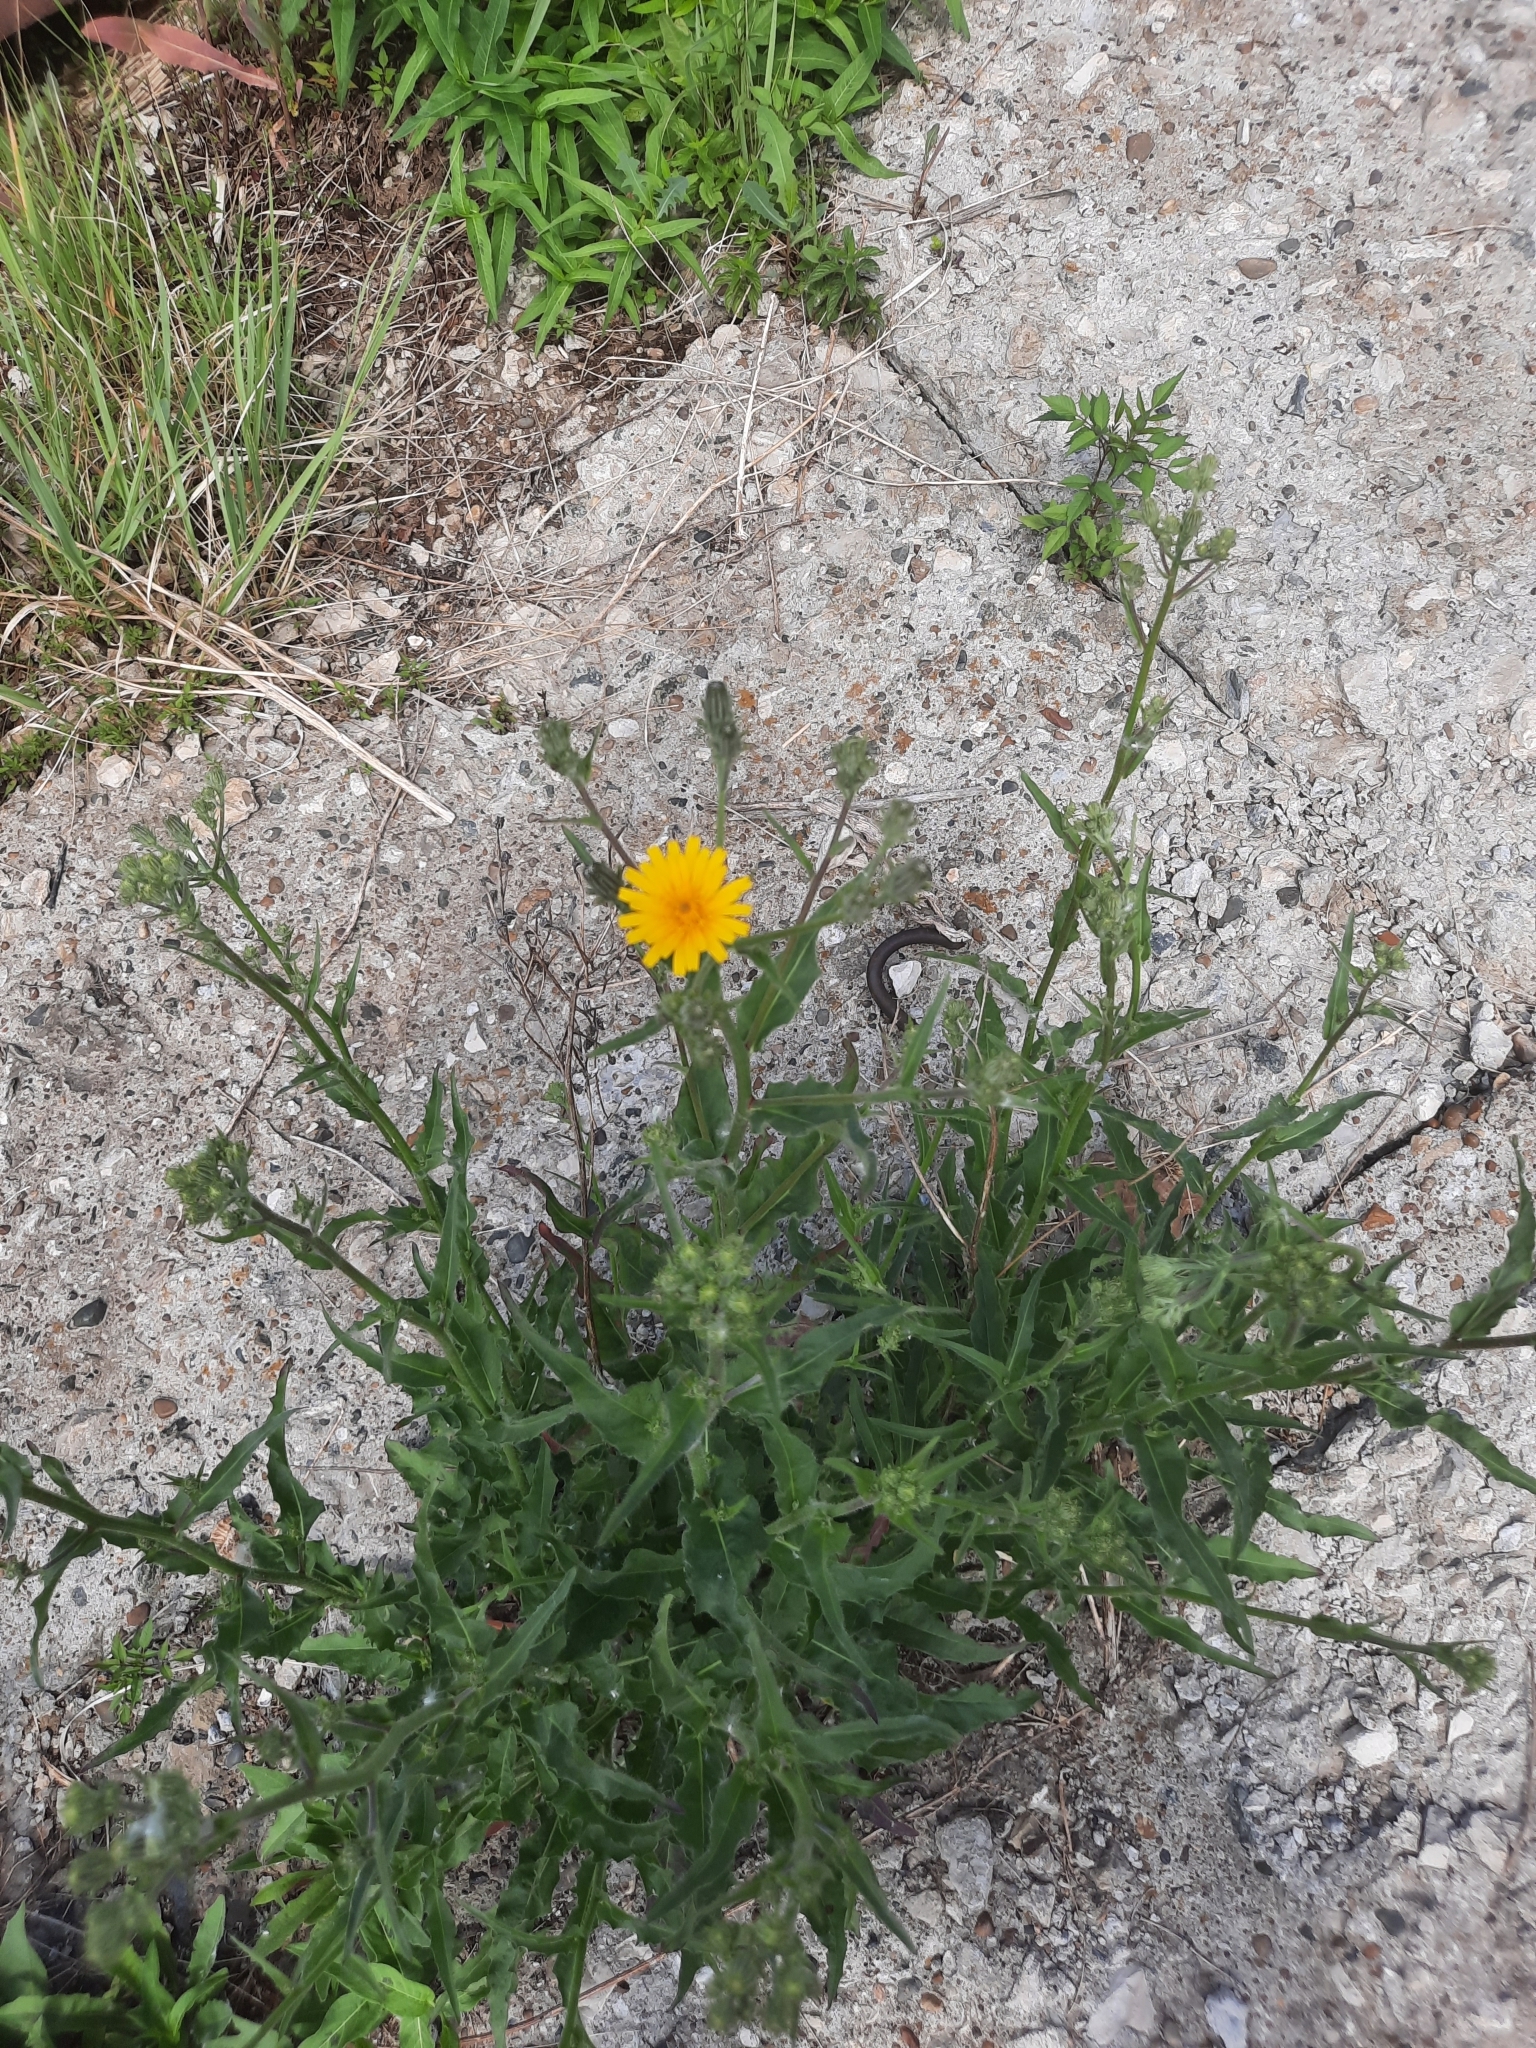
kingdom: Plantae
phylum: Tracheophyta
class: Magnoliopsida
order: Asterales
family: Asteraceae
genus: Picris
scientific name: Picris hieracioides
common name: Hawkweed oxtongue
